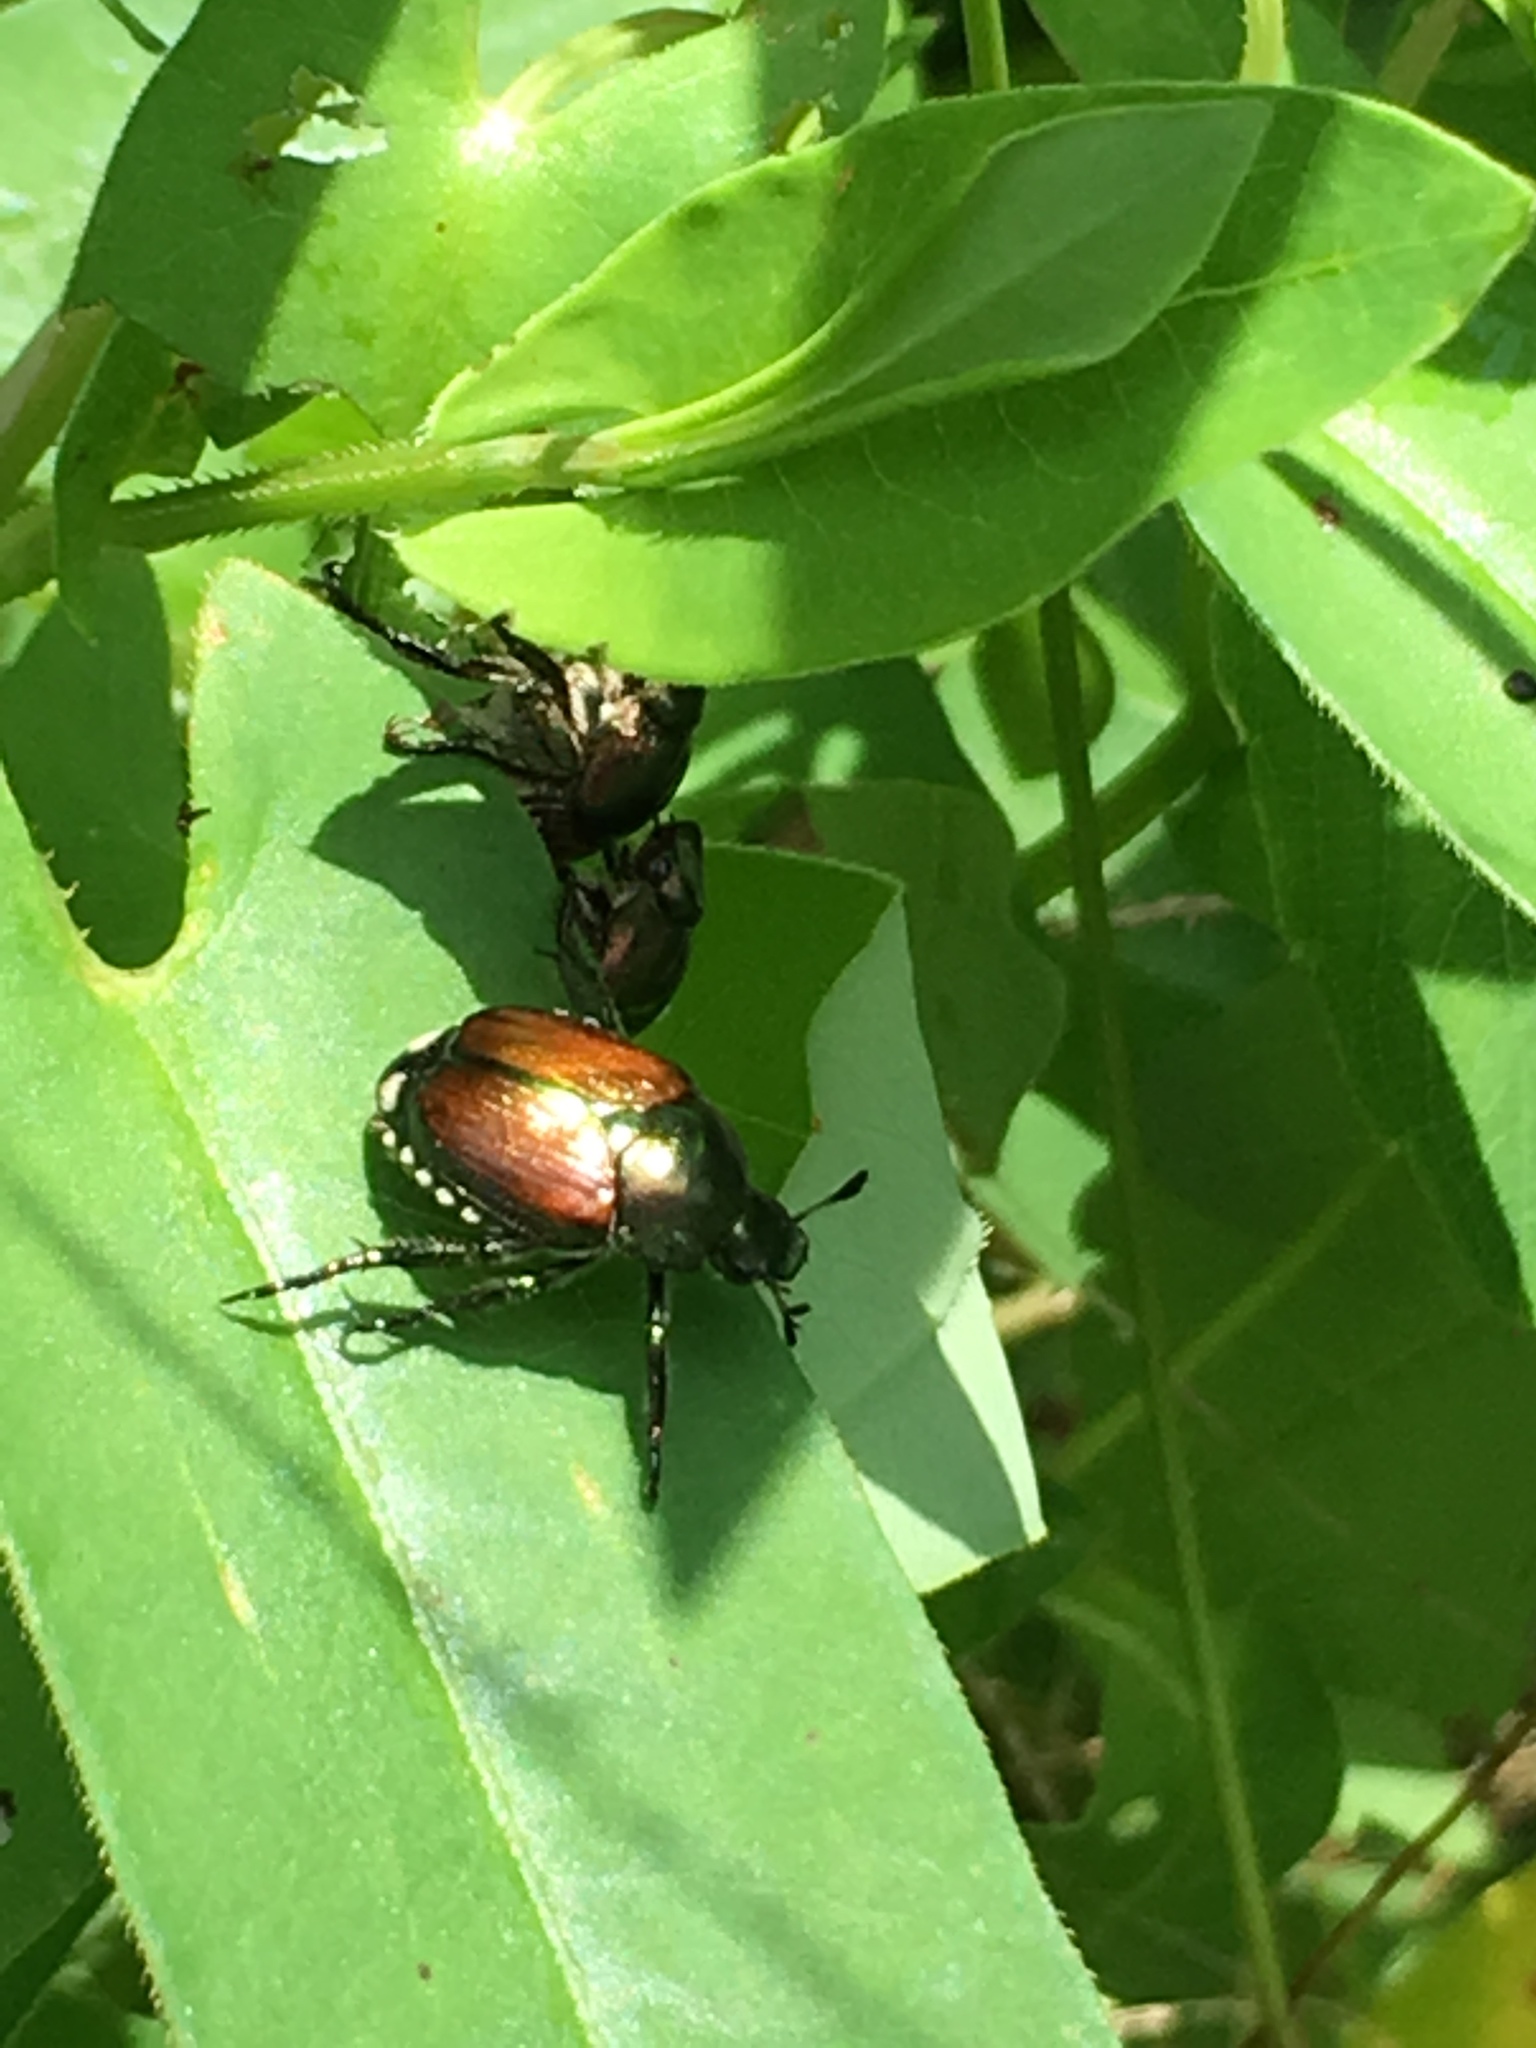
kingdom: Animalia
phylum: Arthropoda
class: Insecta
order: Coleoptera
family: Scarabaeidae
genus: Popillia
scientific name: Popillia japonica
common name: Japanese beetle
